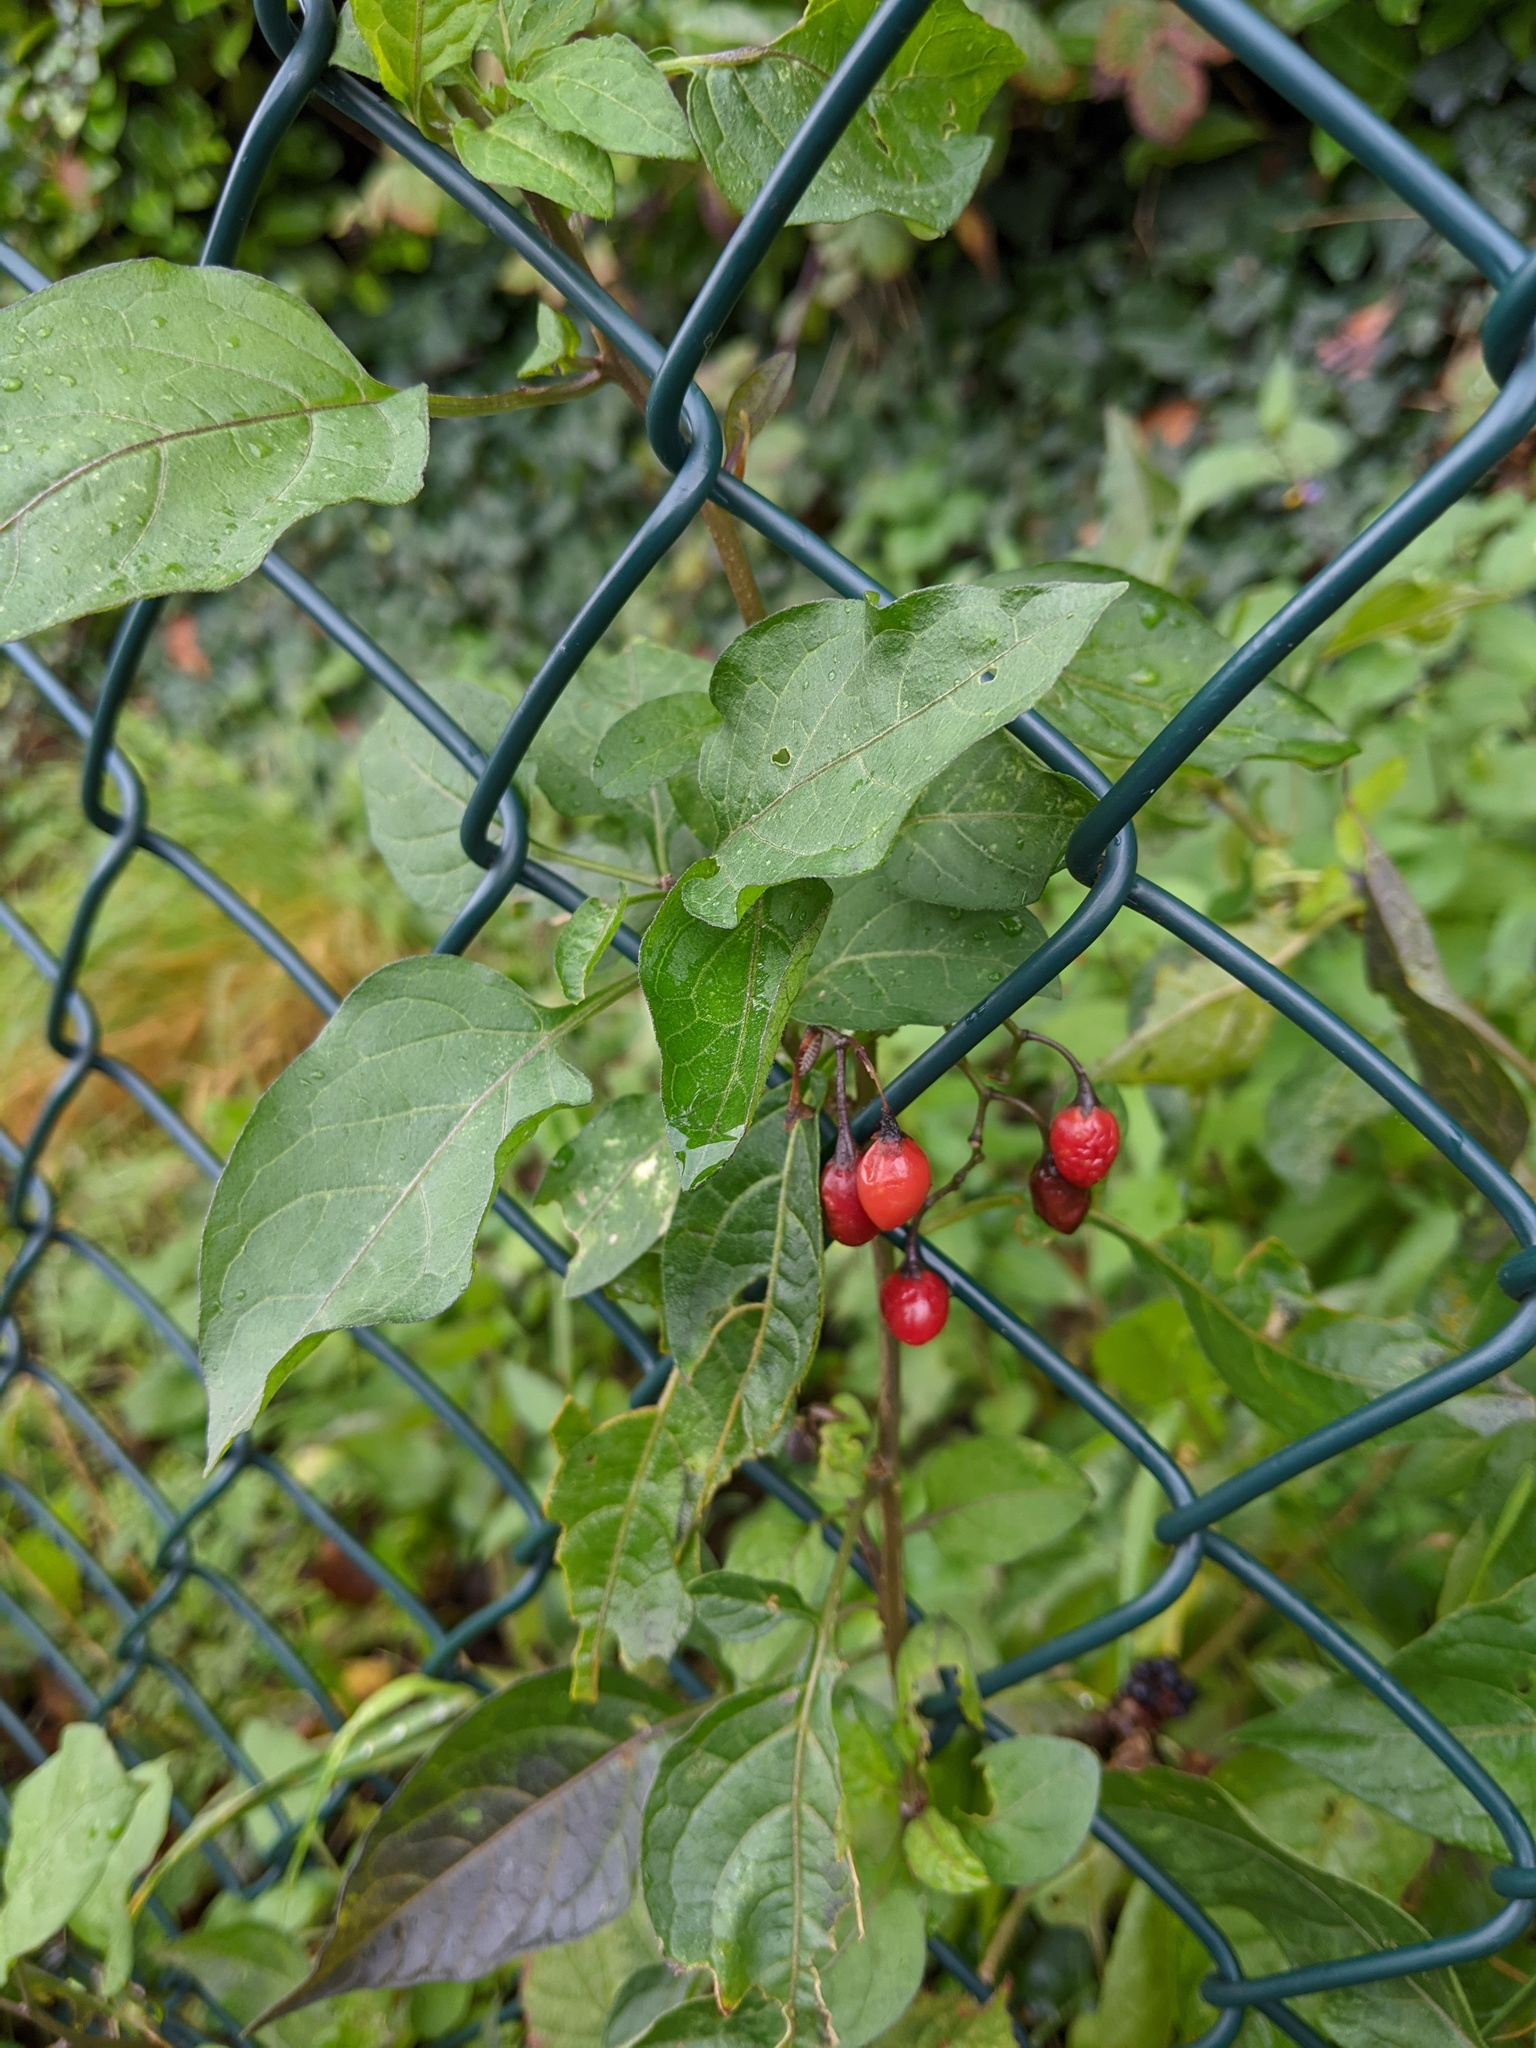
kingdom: Plantae
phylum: Tracheophyta
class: Magnoliopsida
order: Solanales
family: Solanaceae
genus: Solanum
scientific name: Solanum dulcamara
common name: Climbing nightshade
